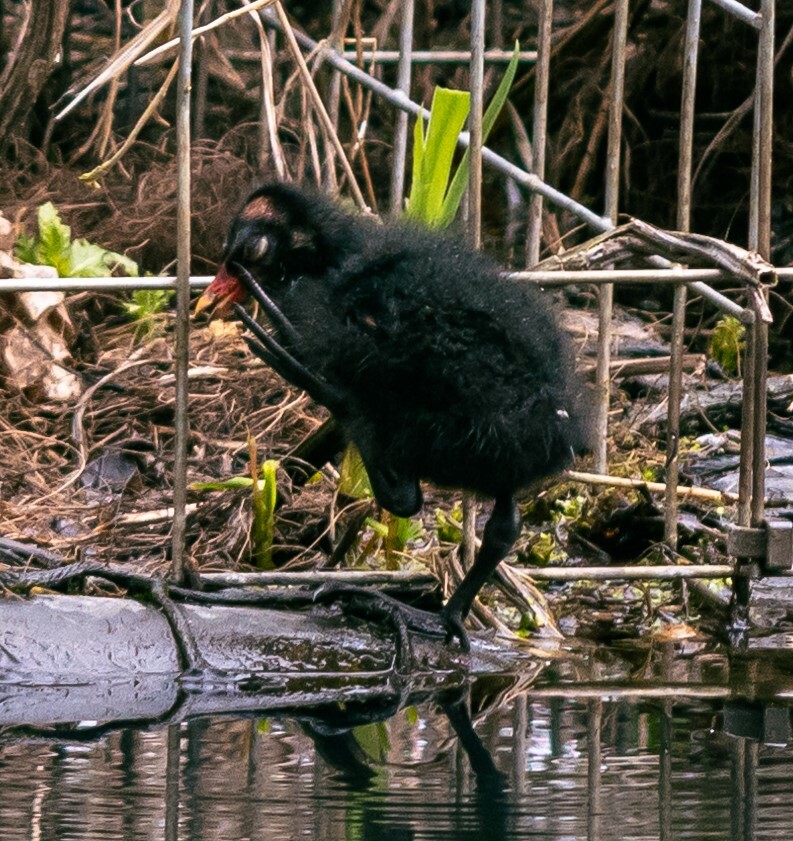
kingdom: Animalia
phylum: Chordata
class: Aves
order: Gruiformes
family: Rallidae
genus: Gallinula
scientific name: Gallinula chloropus
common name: Common moorhen
